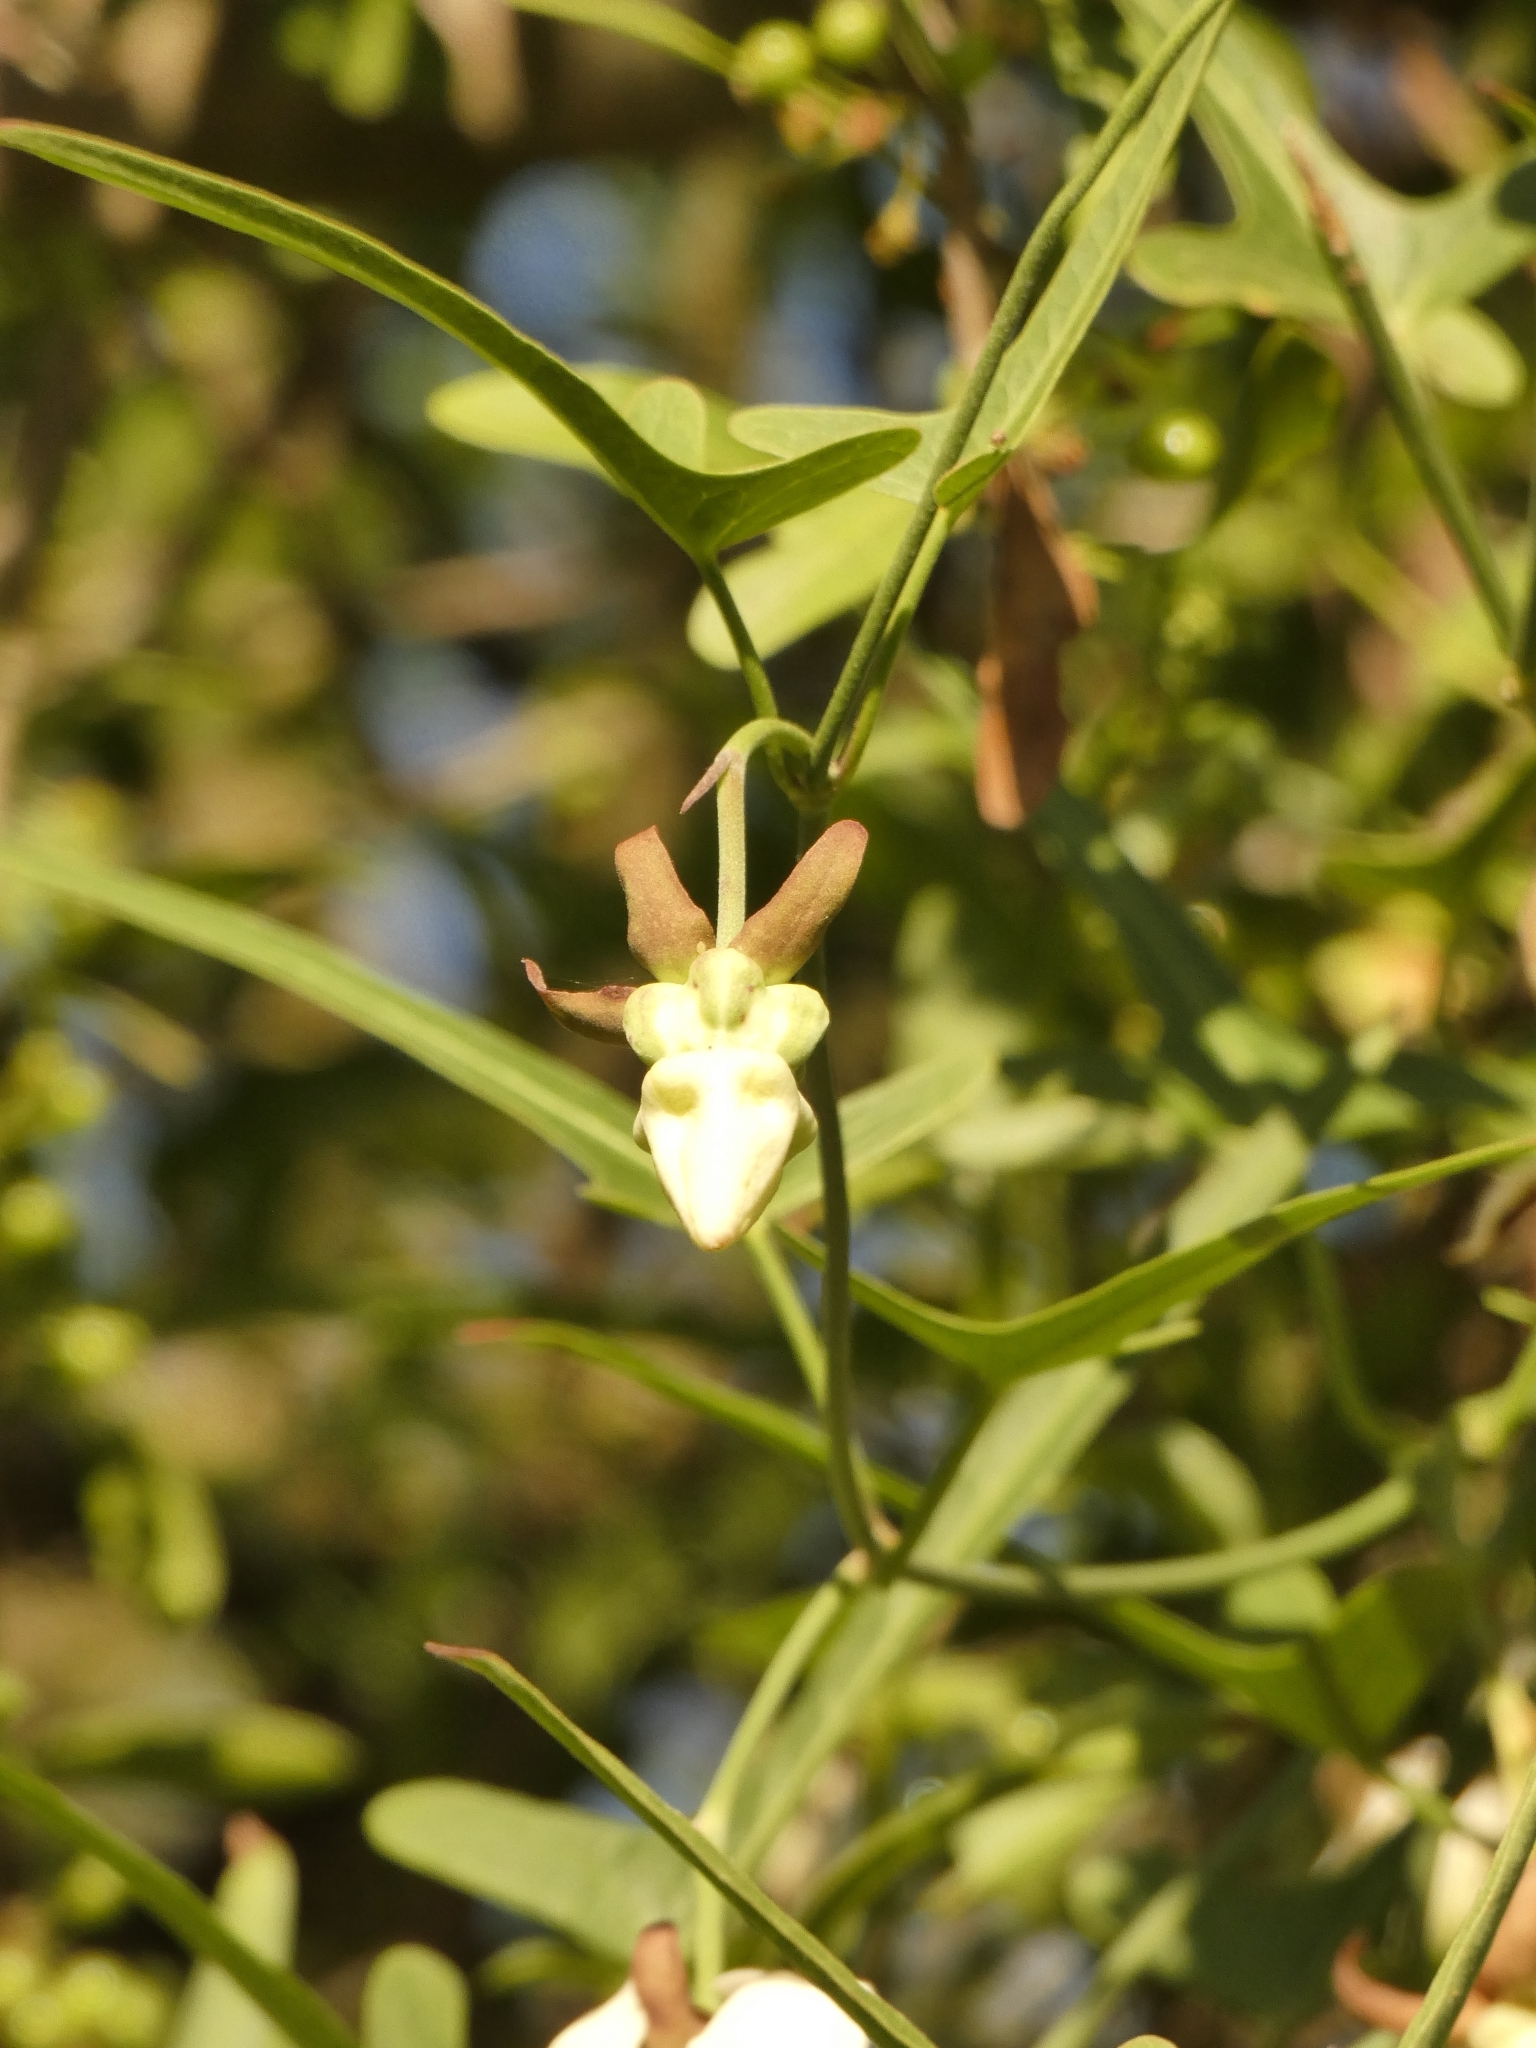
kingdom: Plantae
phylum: Tracheophyta
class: Magnoliopsida
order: Gentianales
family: Apocynaceae
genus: Araujia
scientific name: Araujia angustifolia
